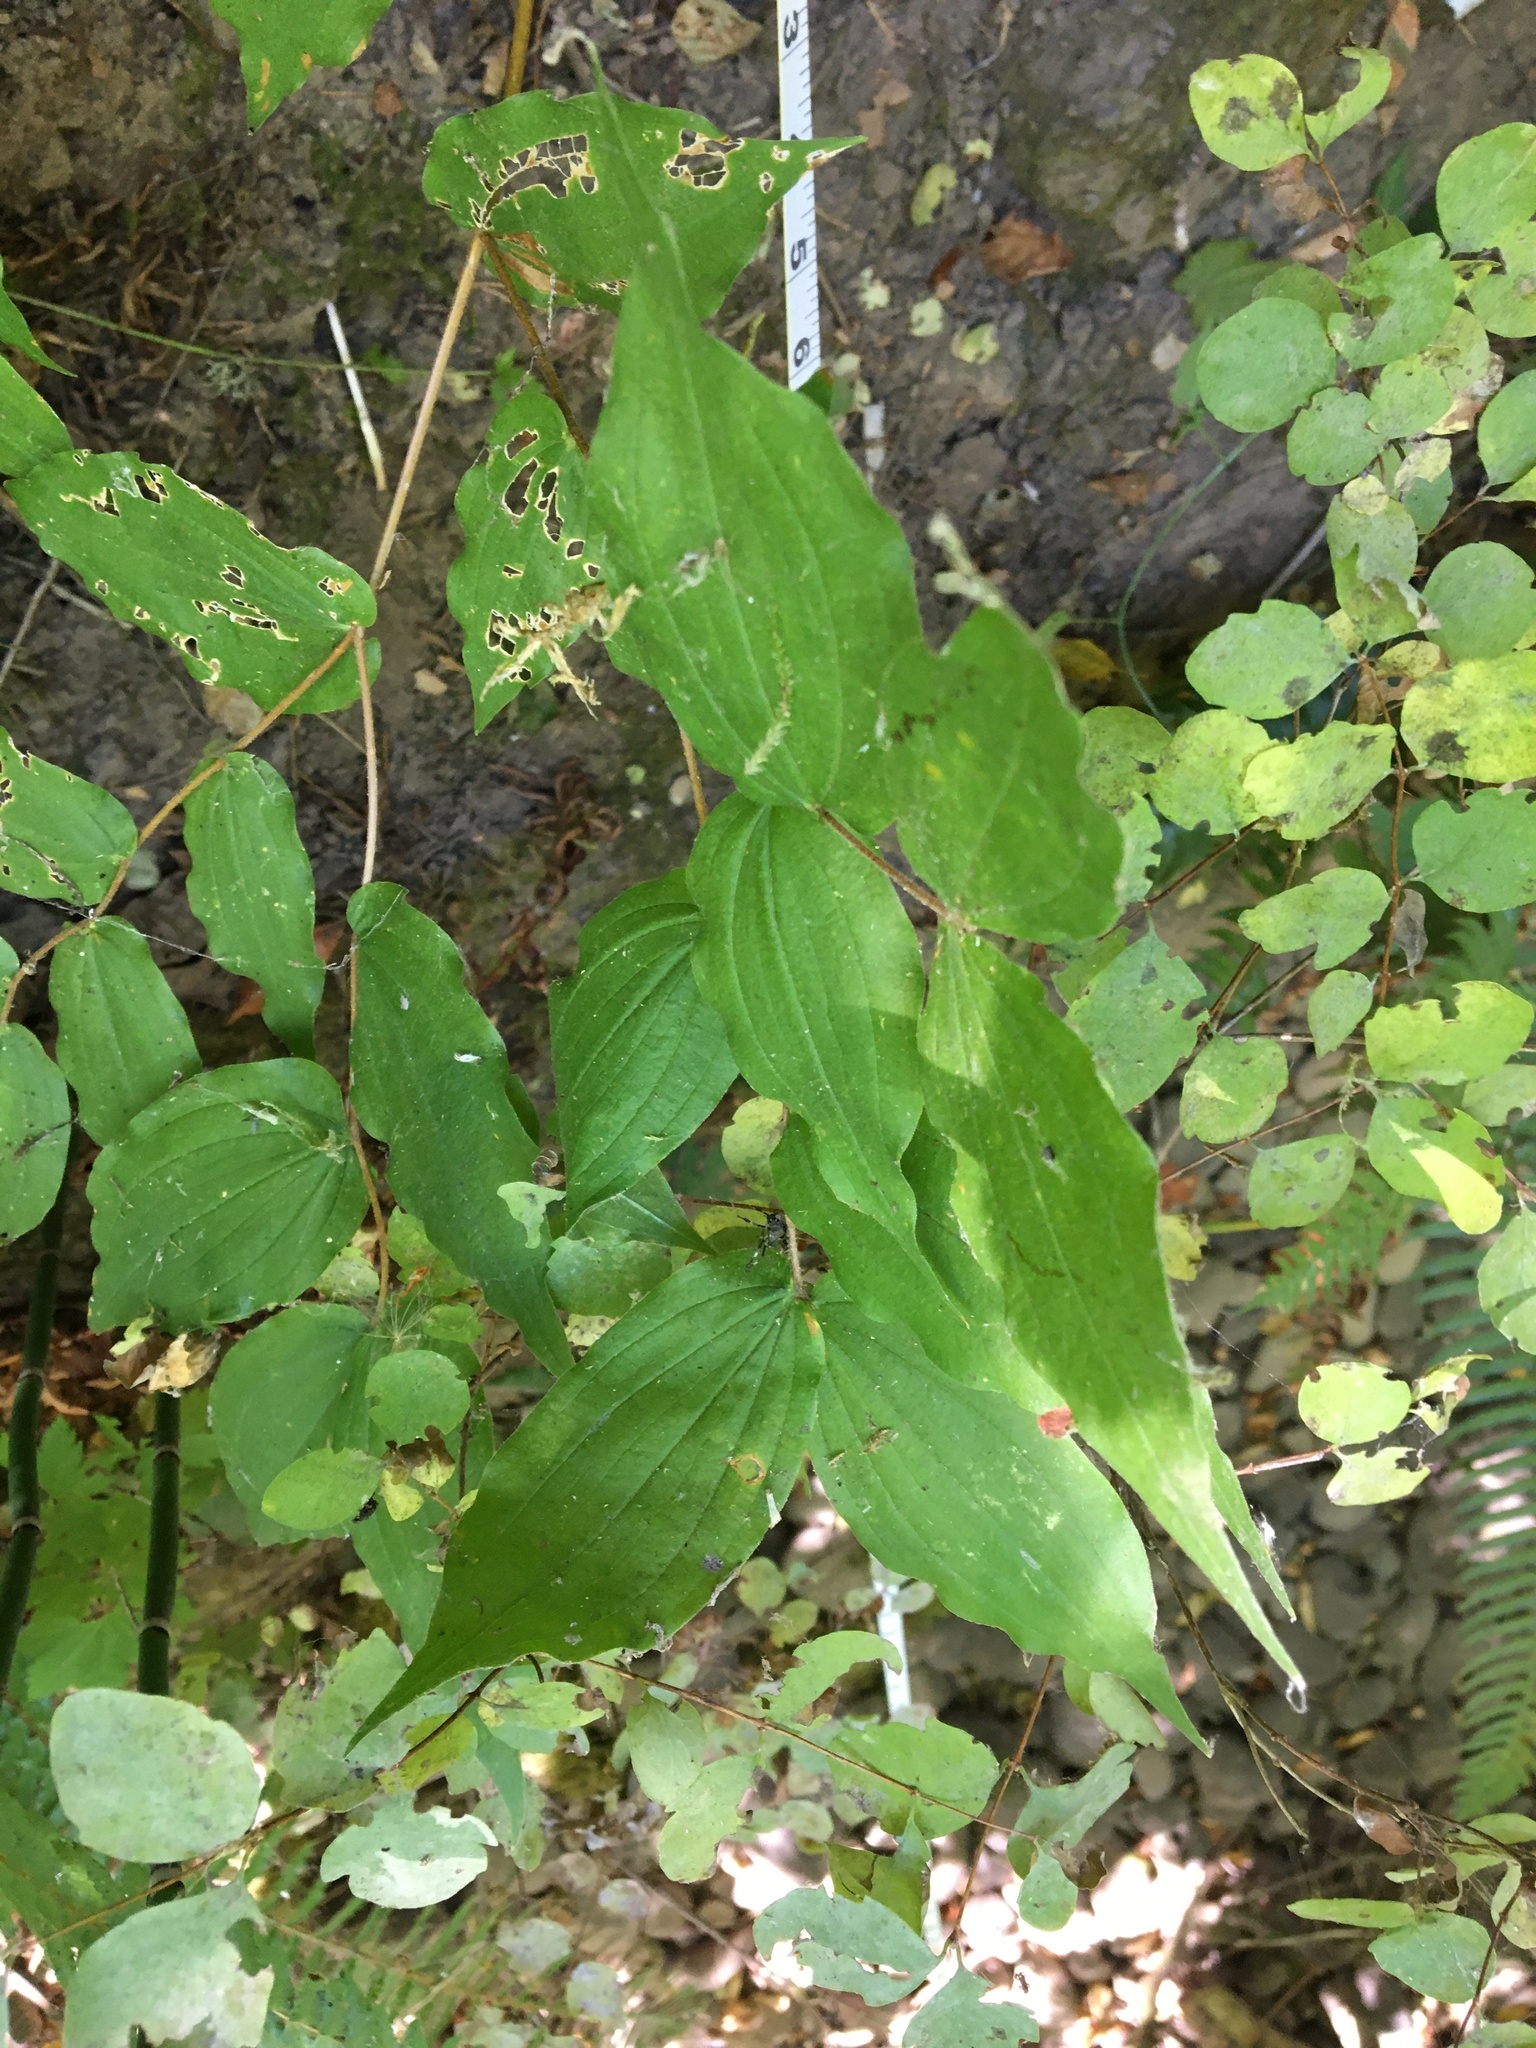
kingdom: Plantae
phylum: Tracheophyta
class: Liliopsida
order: Liliales
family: Liliaceae
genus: Prosartes
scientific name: Prosartes hookeri
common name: Fairy-bells
